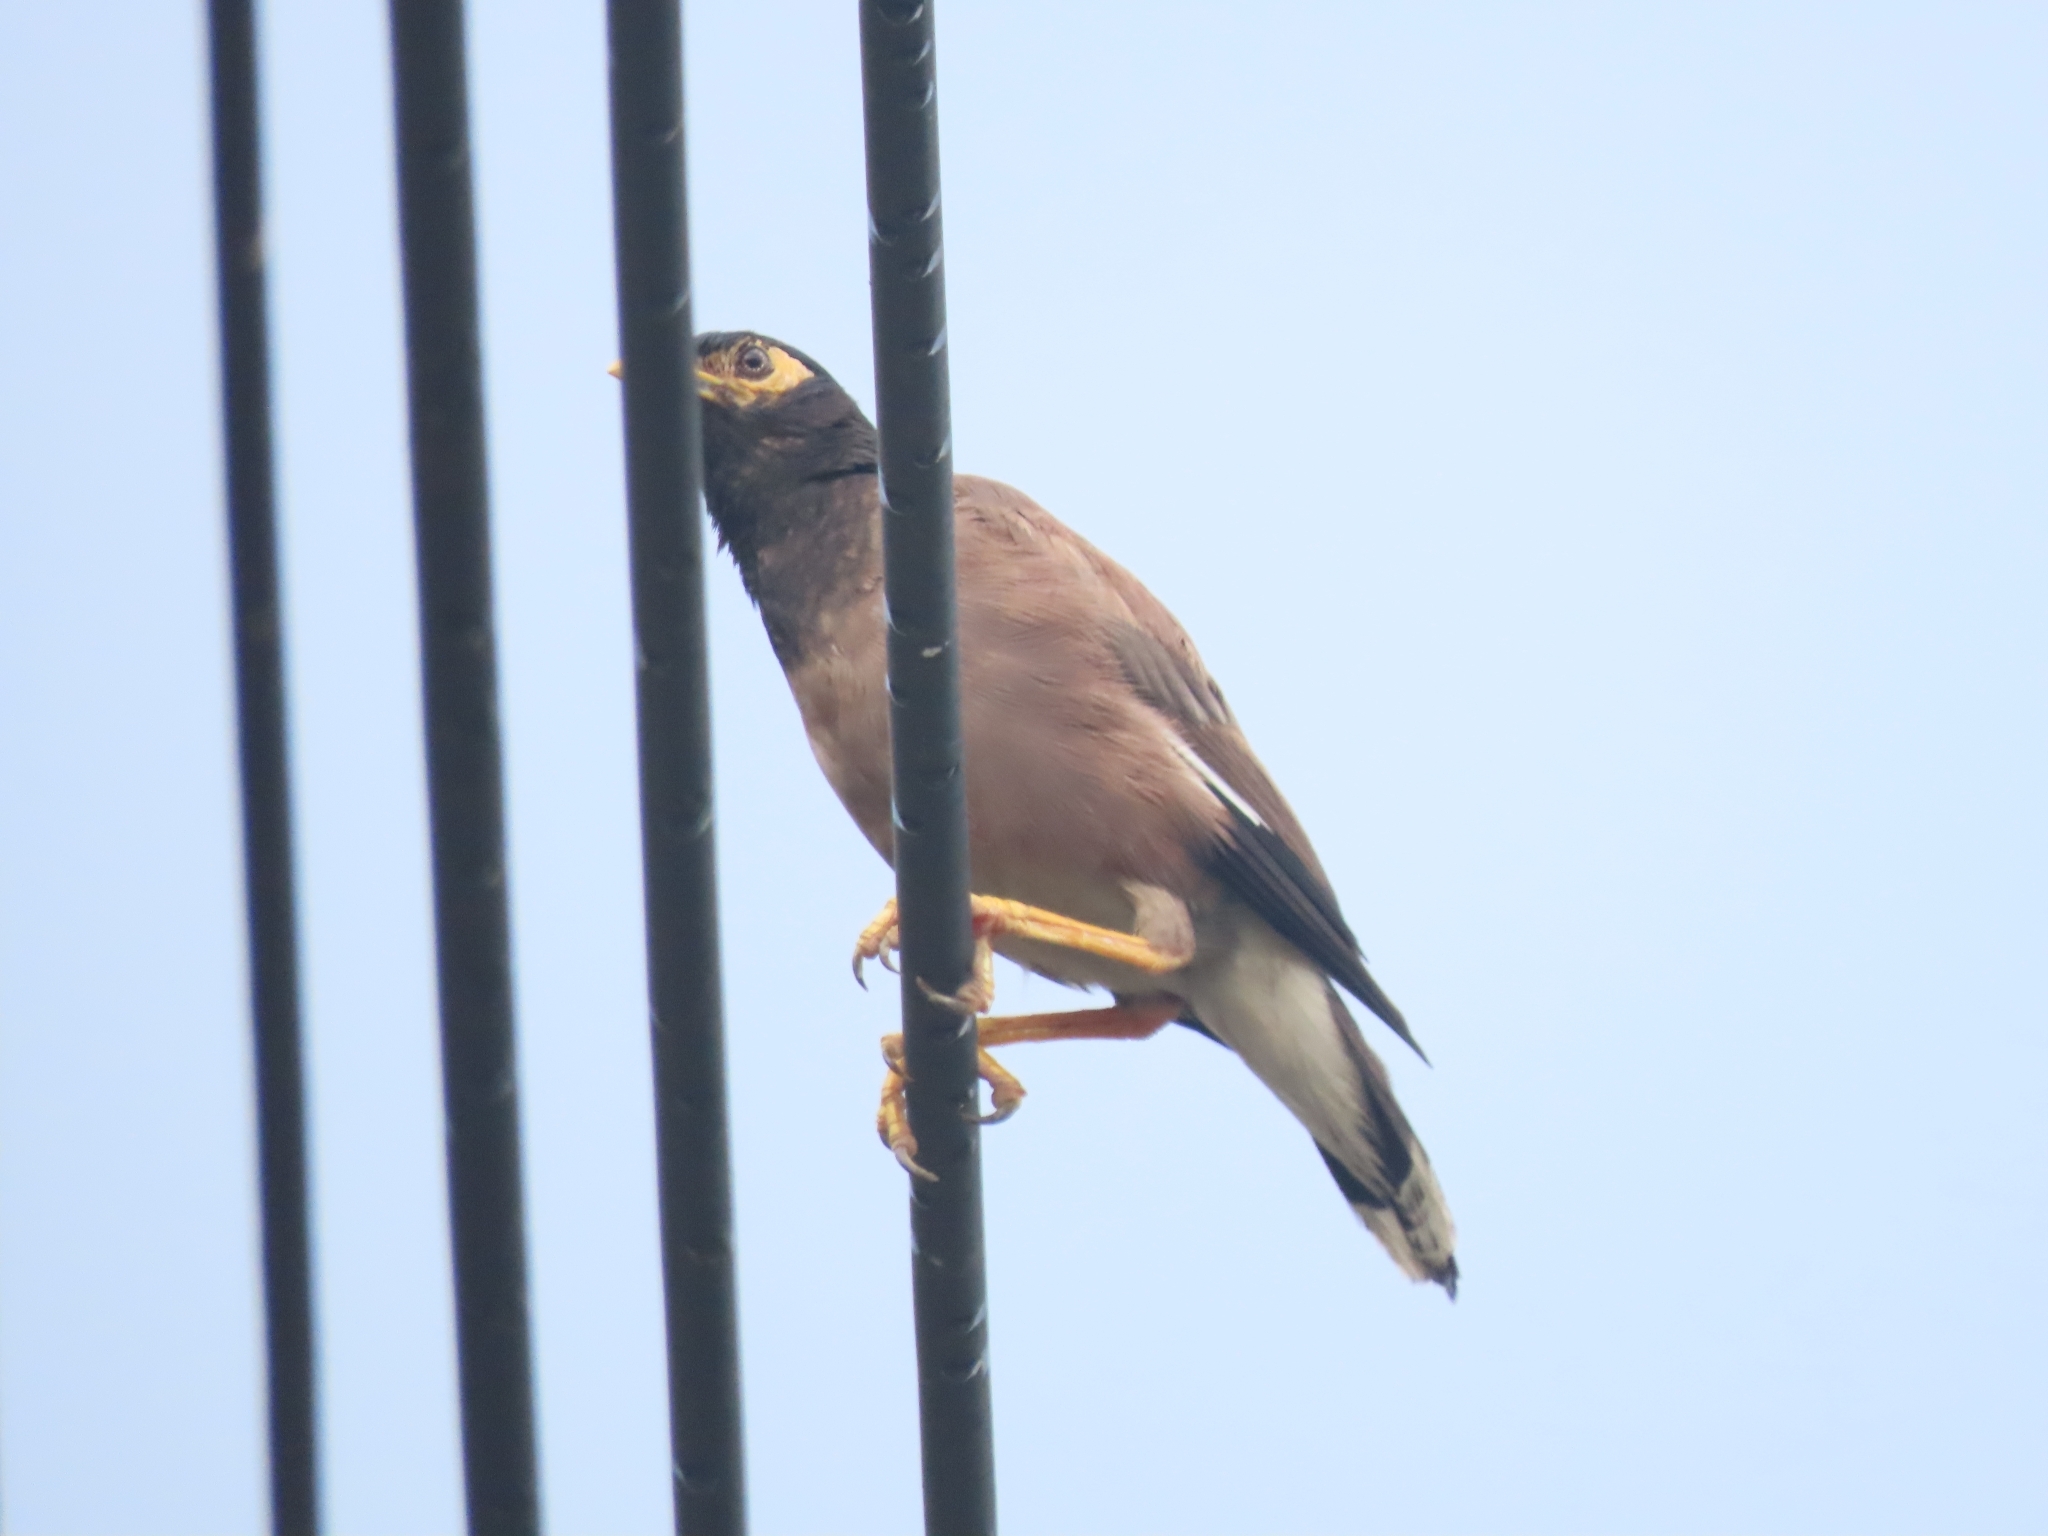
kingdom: Animalia
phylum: Chordata
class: Aves
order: Passeriformes
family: Sturnidae
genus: Acridotheres
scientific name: Acridotheres tristis
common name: Common myna
